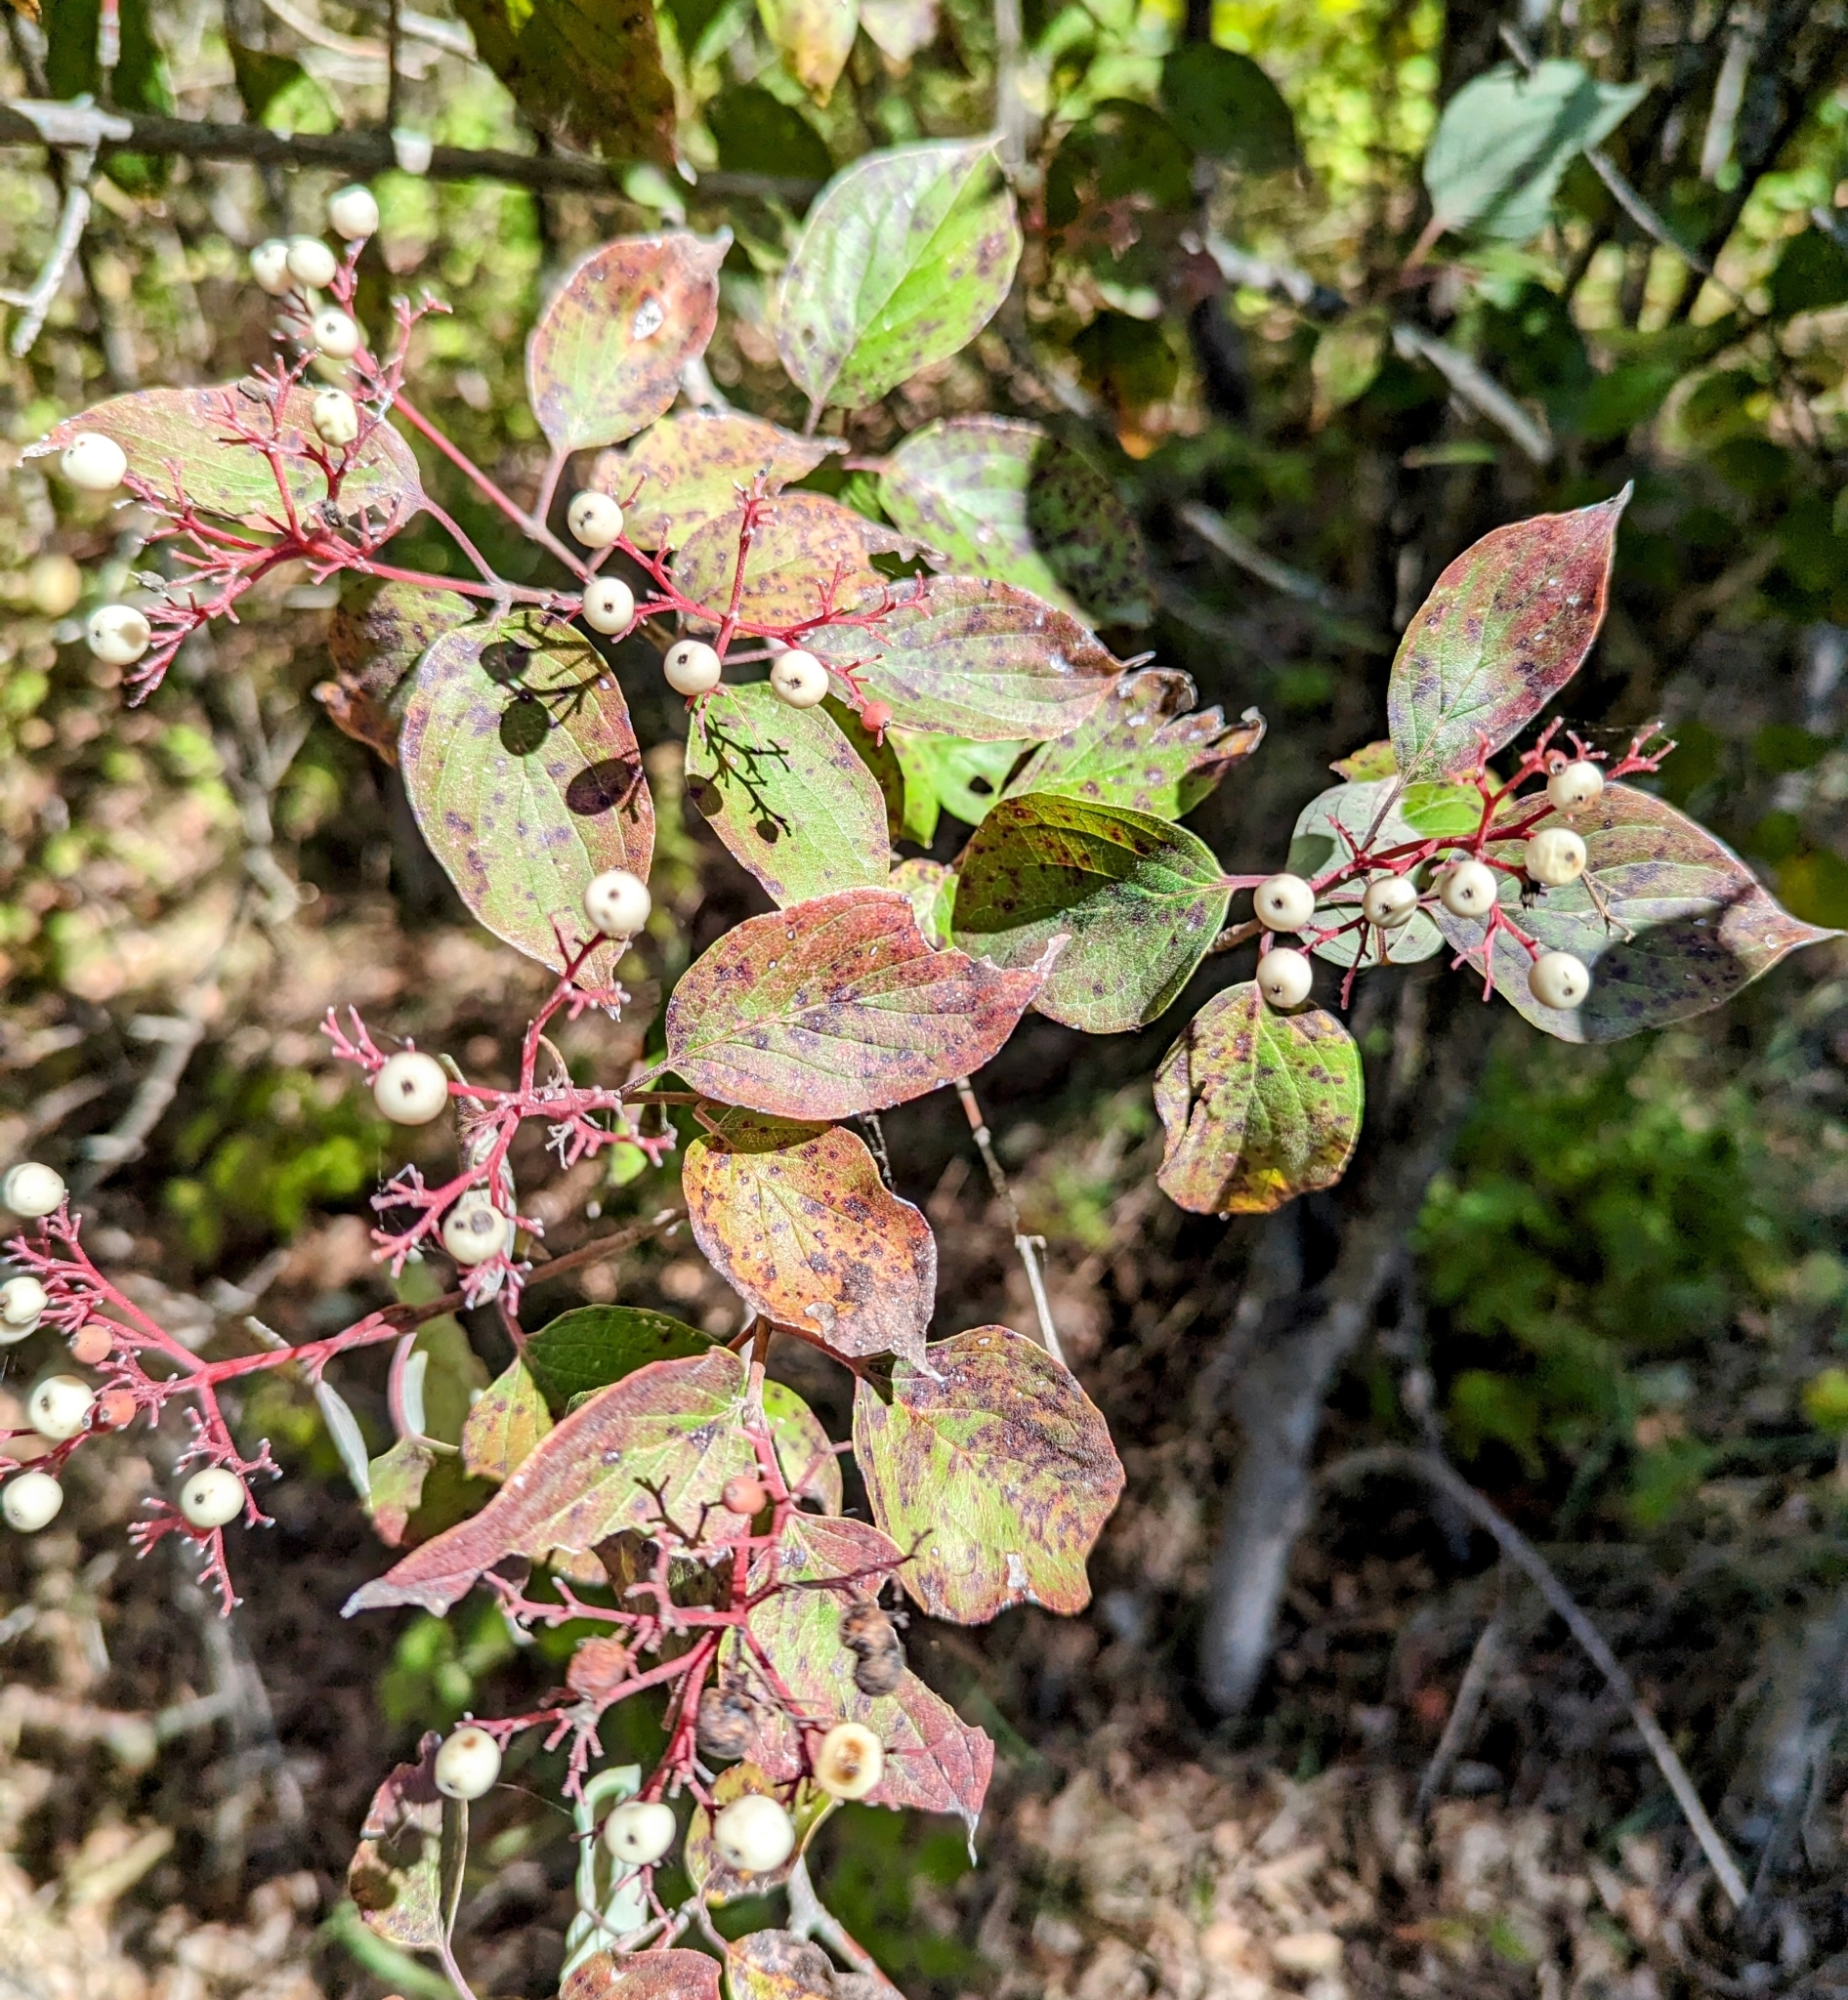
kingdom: Plantae
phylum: Tracheophyta
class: Magnoliopsida
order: Cornales
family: Cornaceae
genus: Cornus
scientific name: Cornus drummondii
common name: Rough-leaf dogwood
